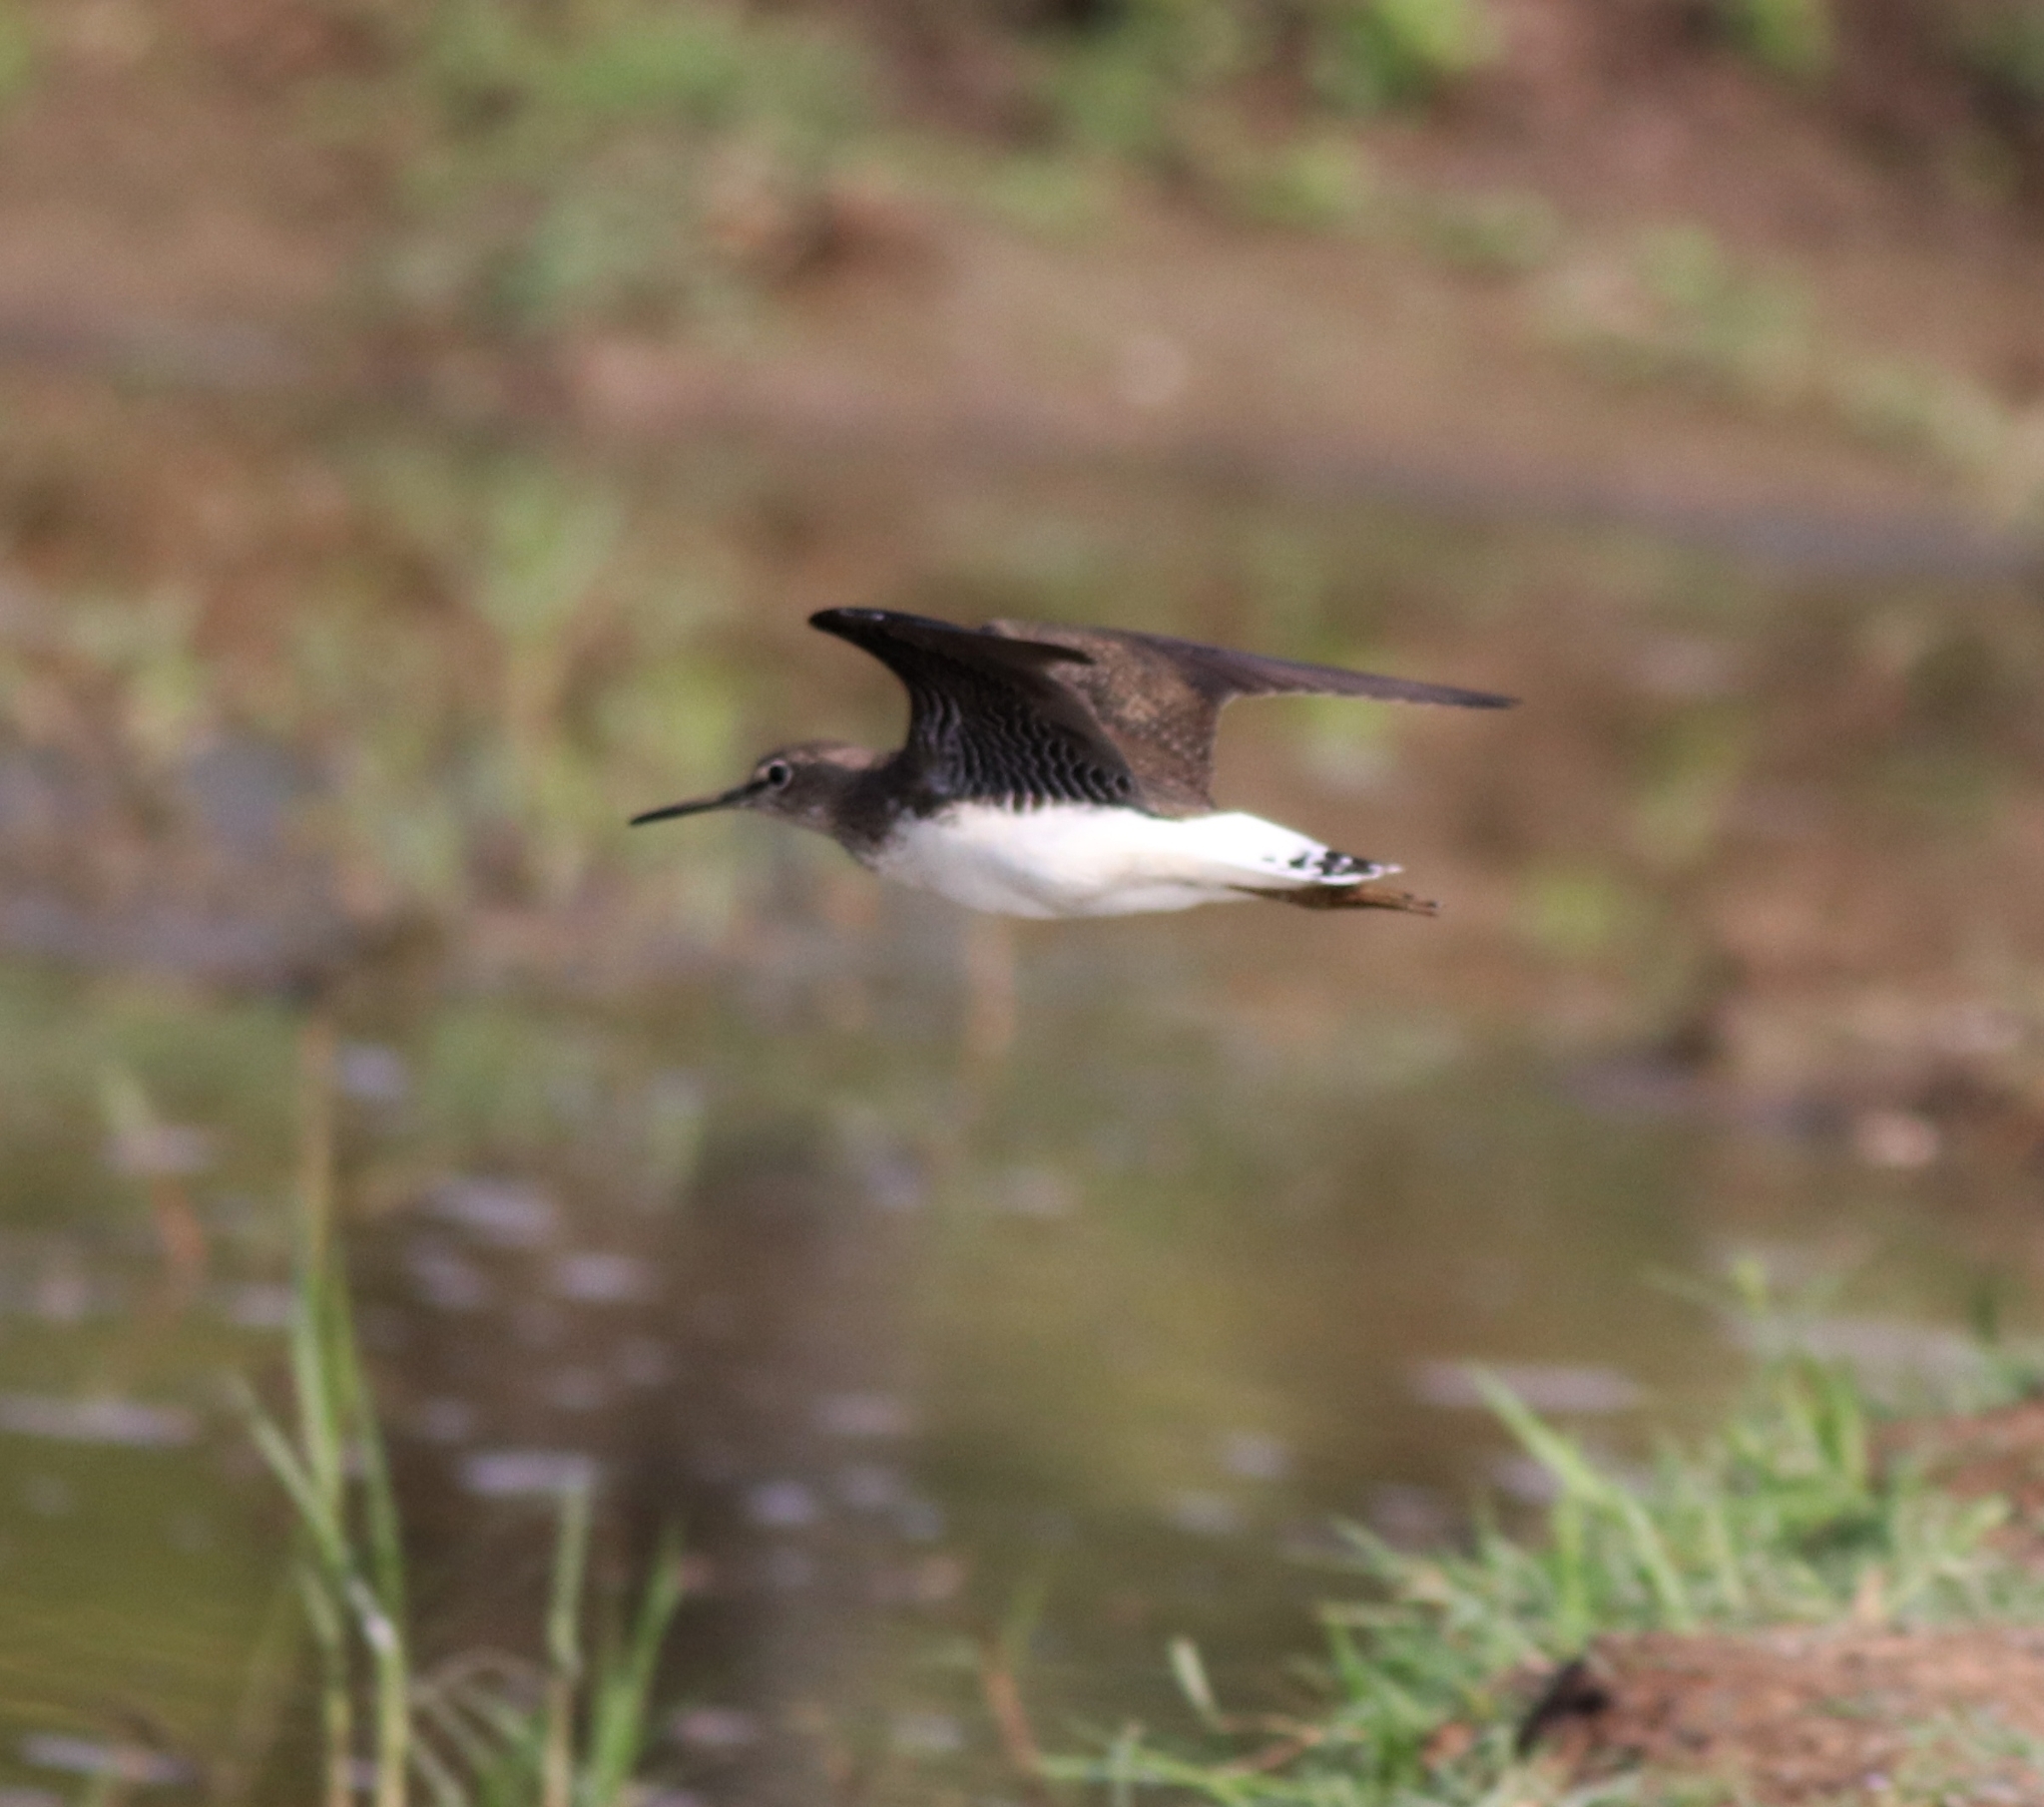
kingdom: Animalia
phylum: Chordata
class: Aves
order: Charadriiformes
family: Scolopacidae
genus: Tringa
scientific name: Tringa ochropus
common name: Green sandpiper
